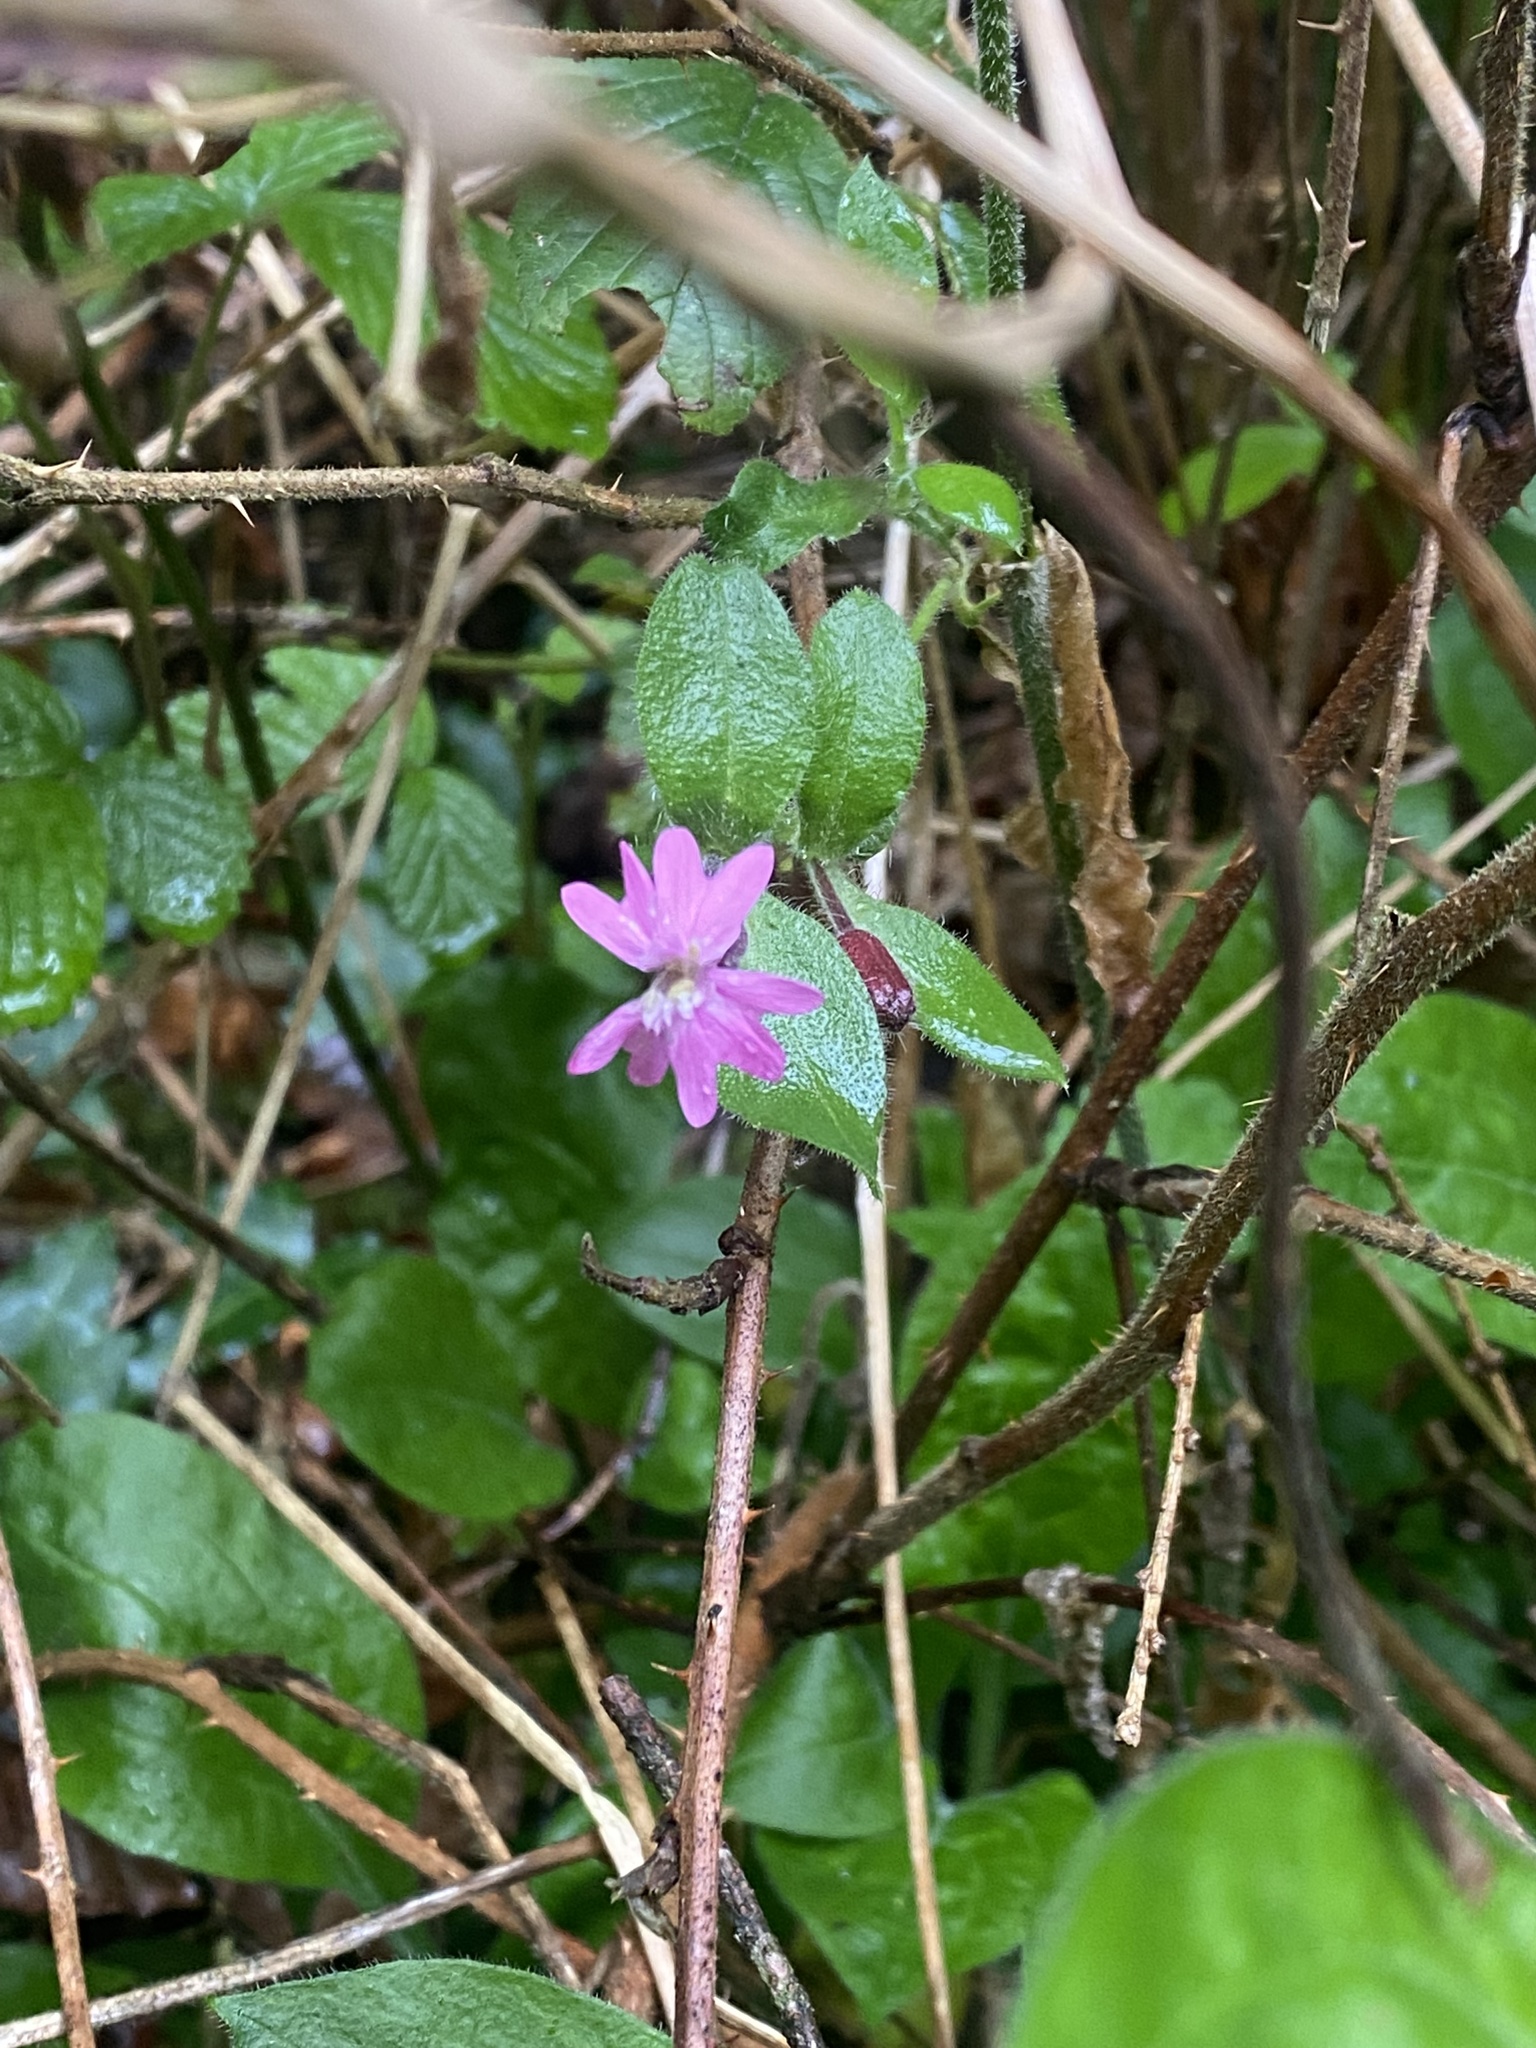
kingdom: Plantae
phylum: Tracheophyta
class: Magnoliopsida
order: Caryophyllales
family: Caryophyllaceae
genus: Silene
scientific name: Silene dioica
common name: Red campion
